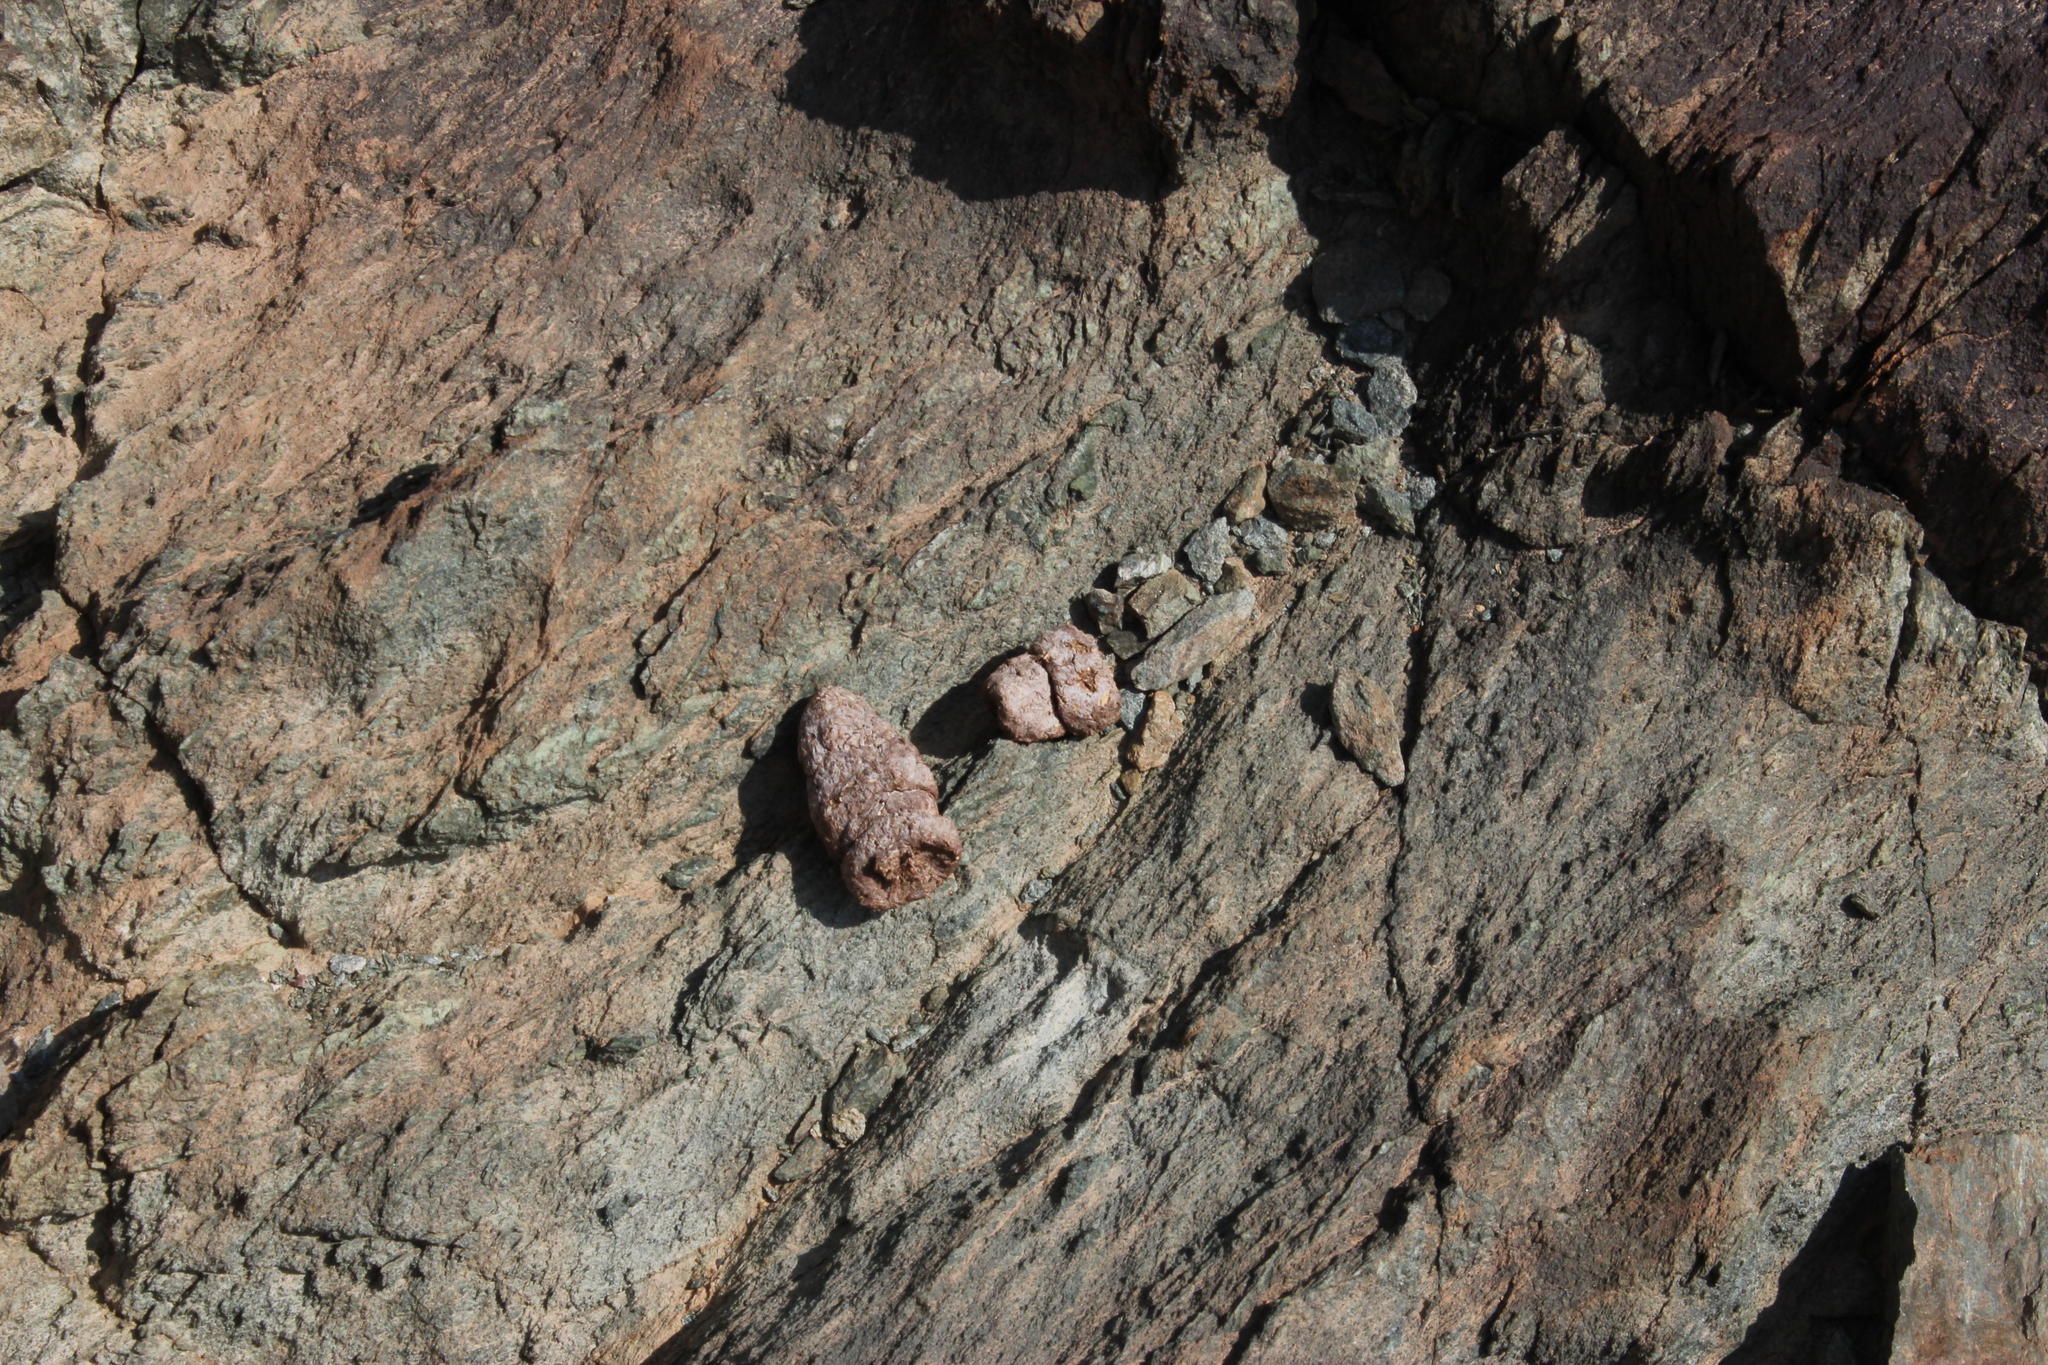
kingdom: Animalia
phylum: Chordata
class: Mammalia
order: Primates
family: Cercopithecidae
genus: Papio
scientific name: Papio ursinus
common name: Chacma baboon
